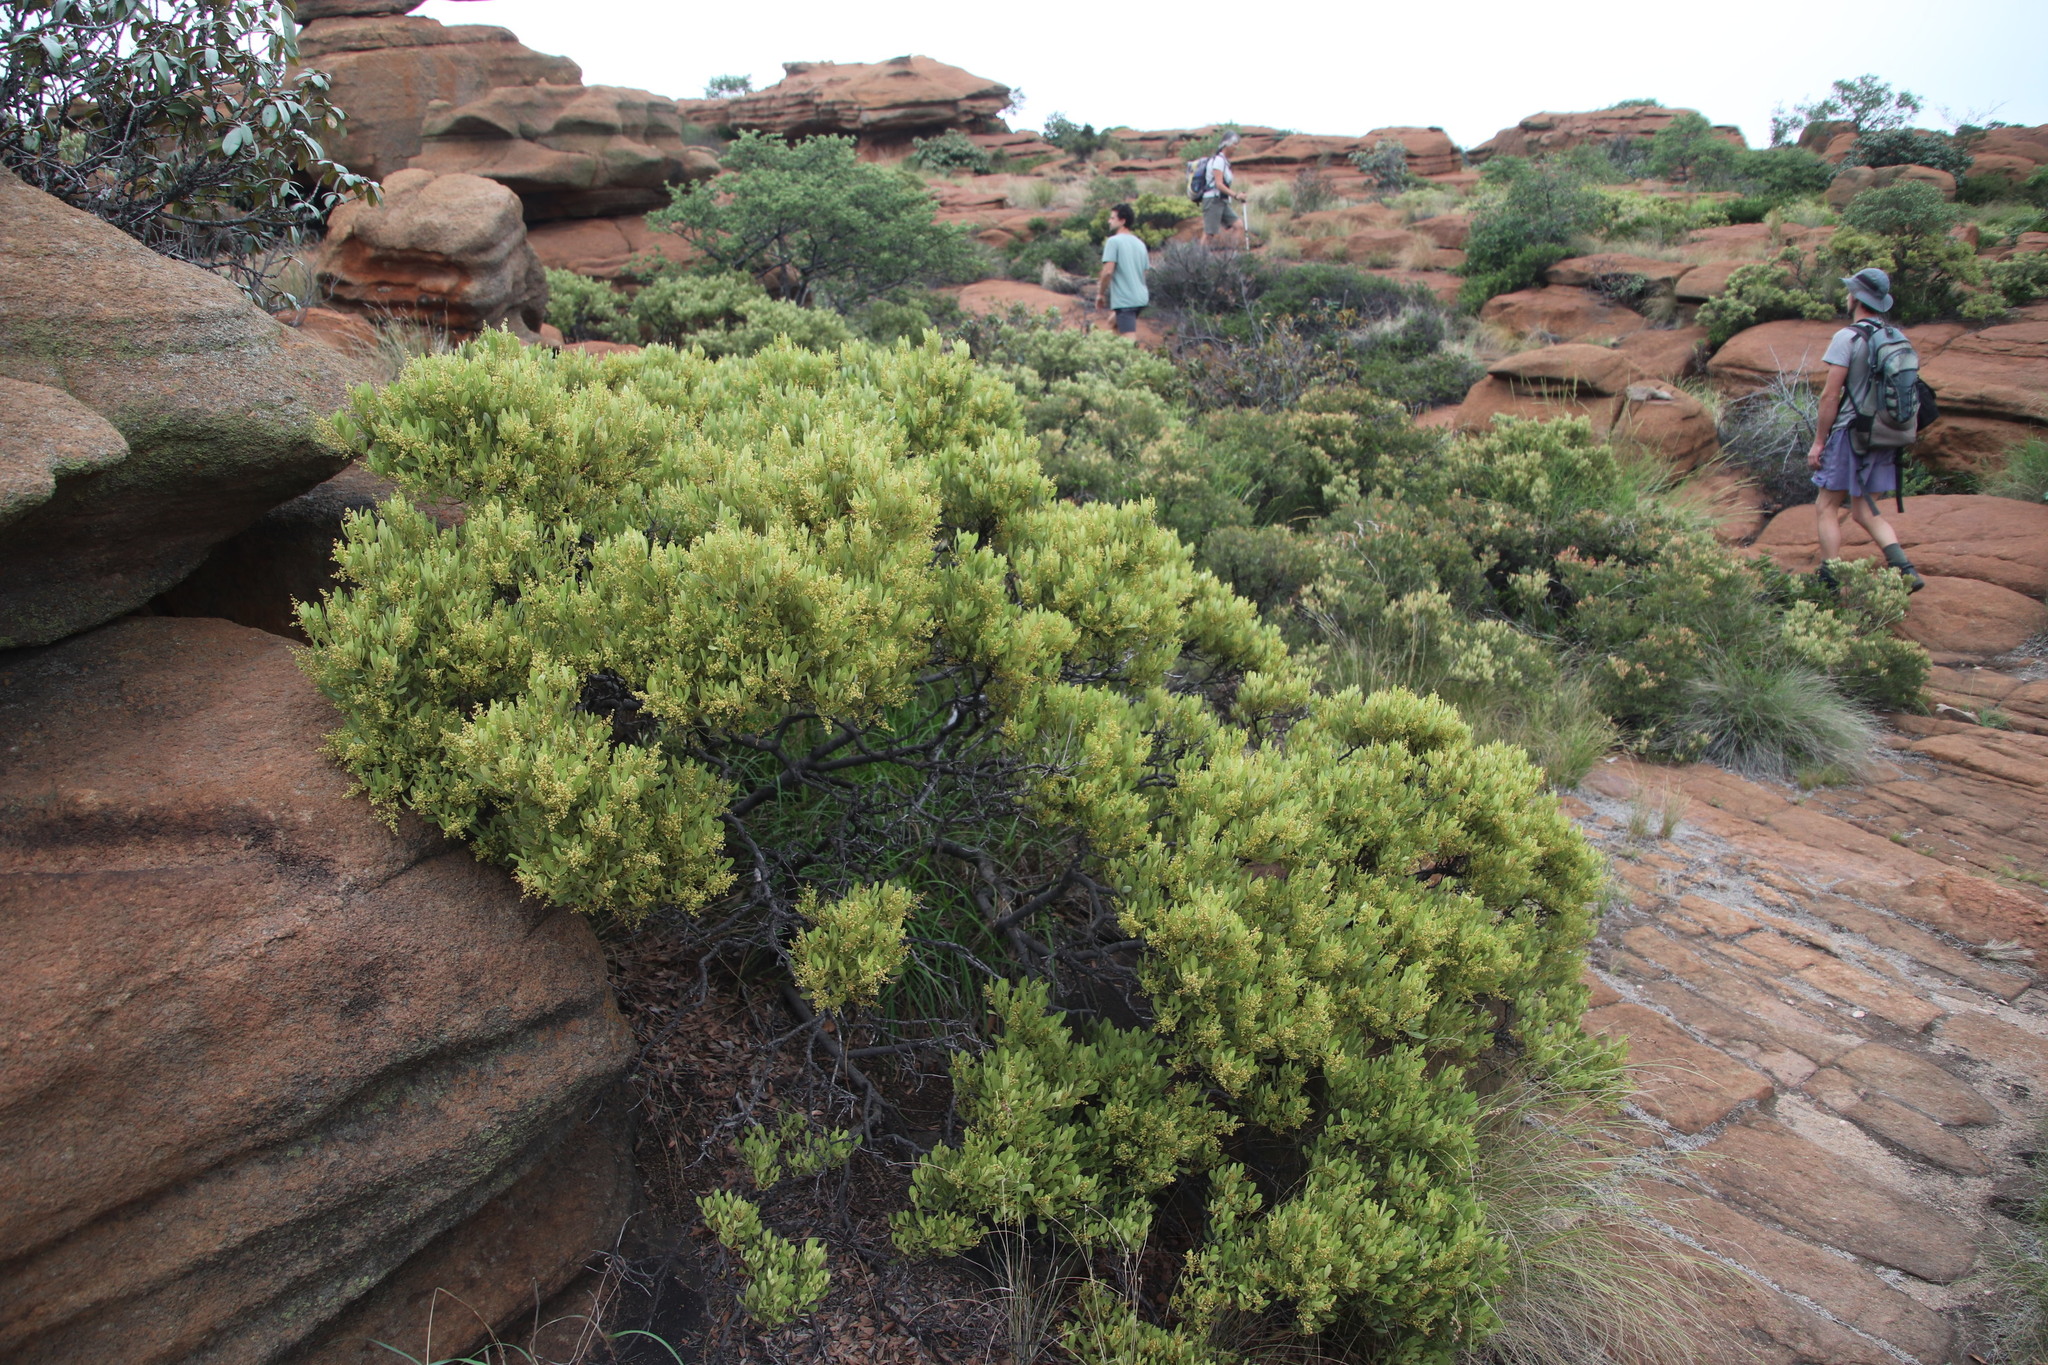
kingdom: Plantae
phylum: Tracheophyta
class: Magnoliopsida
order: Sapindales
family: Anacardiaceae
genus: Searsia
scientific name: Searsia magalismontana
